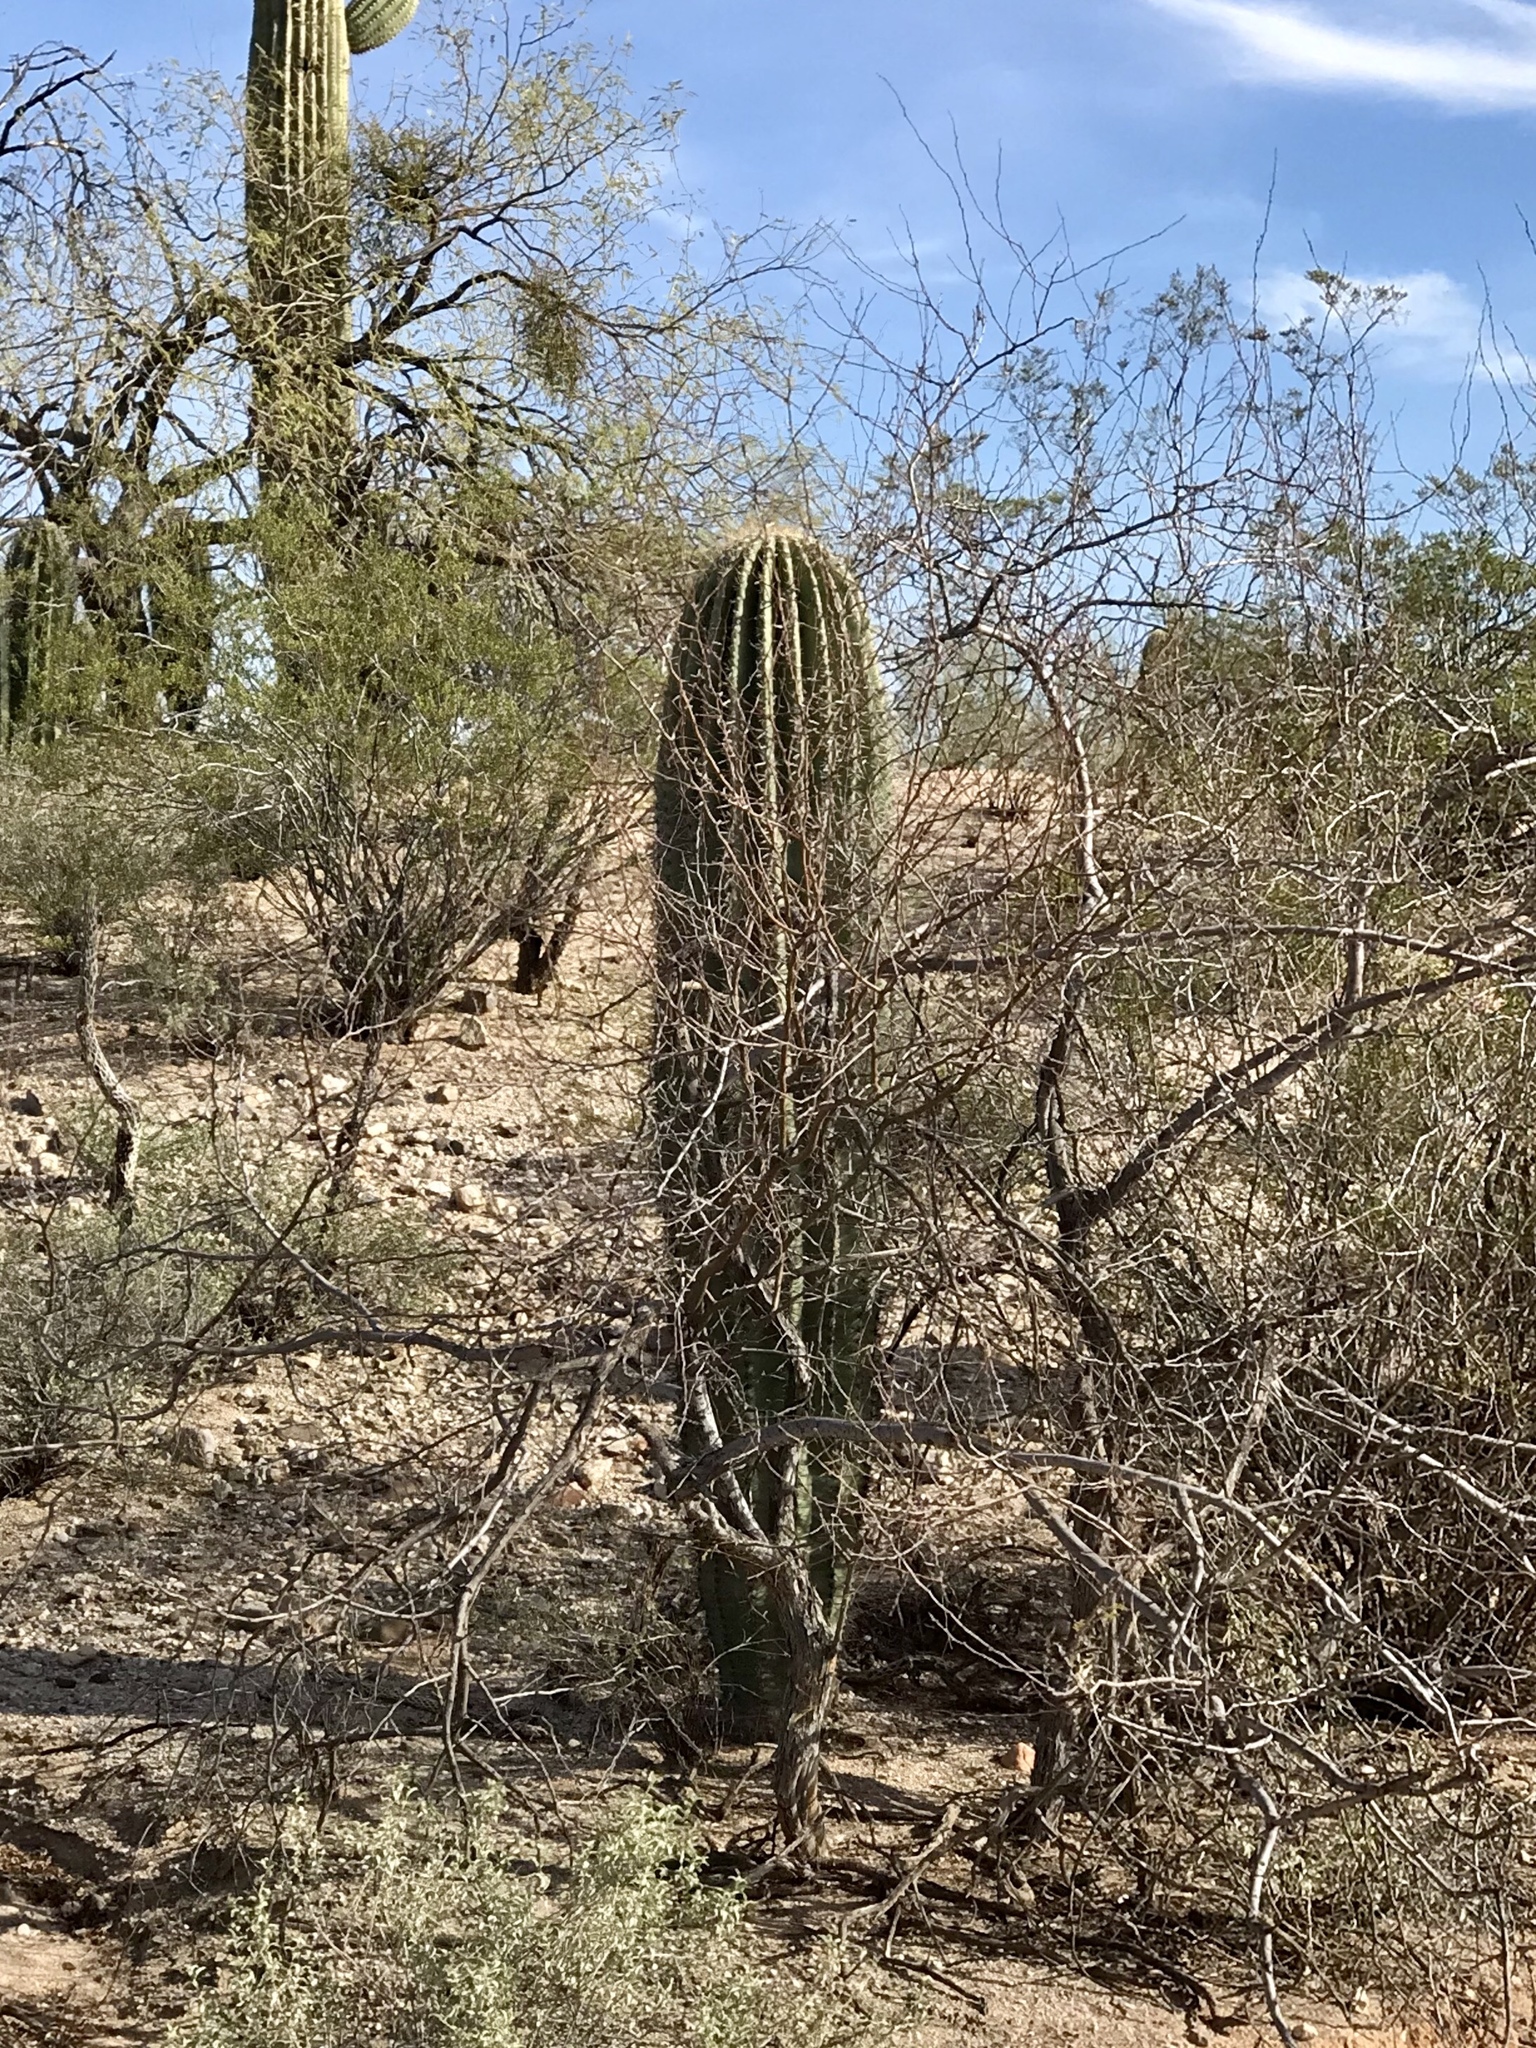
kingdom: Plantae
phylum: Tracheophyta
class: Magnoliopsida
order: Caryophyllales
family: Cactaceae
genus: Carnegiea
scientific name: Carnegiea gigantea
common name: Saguaro
